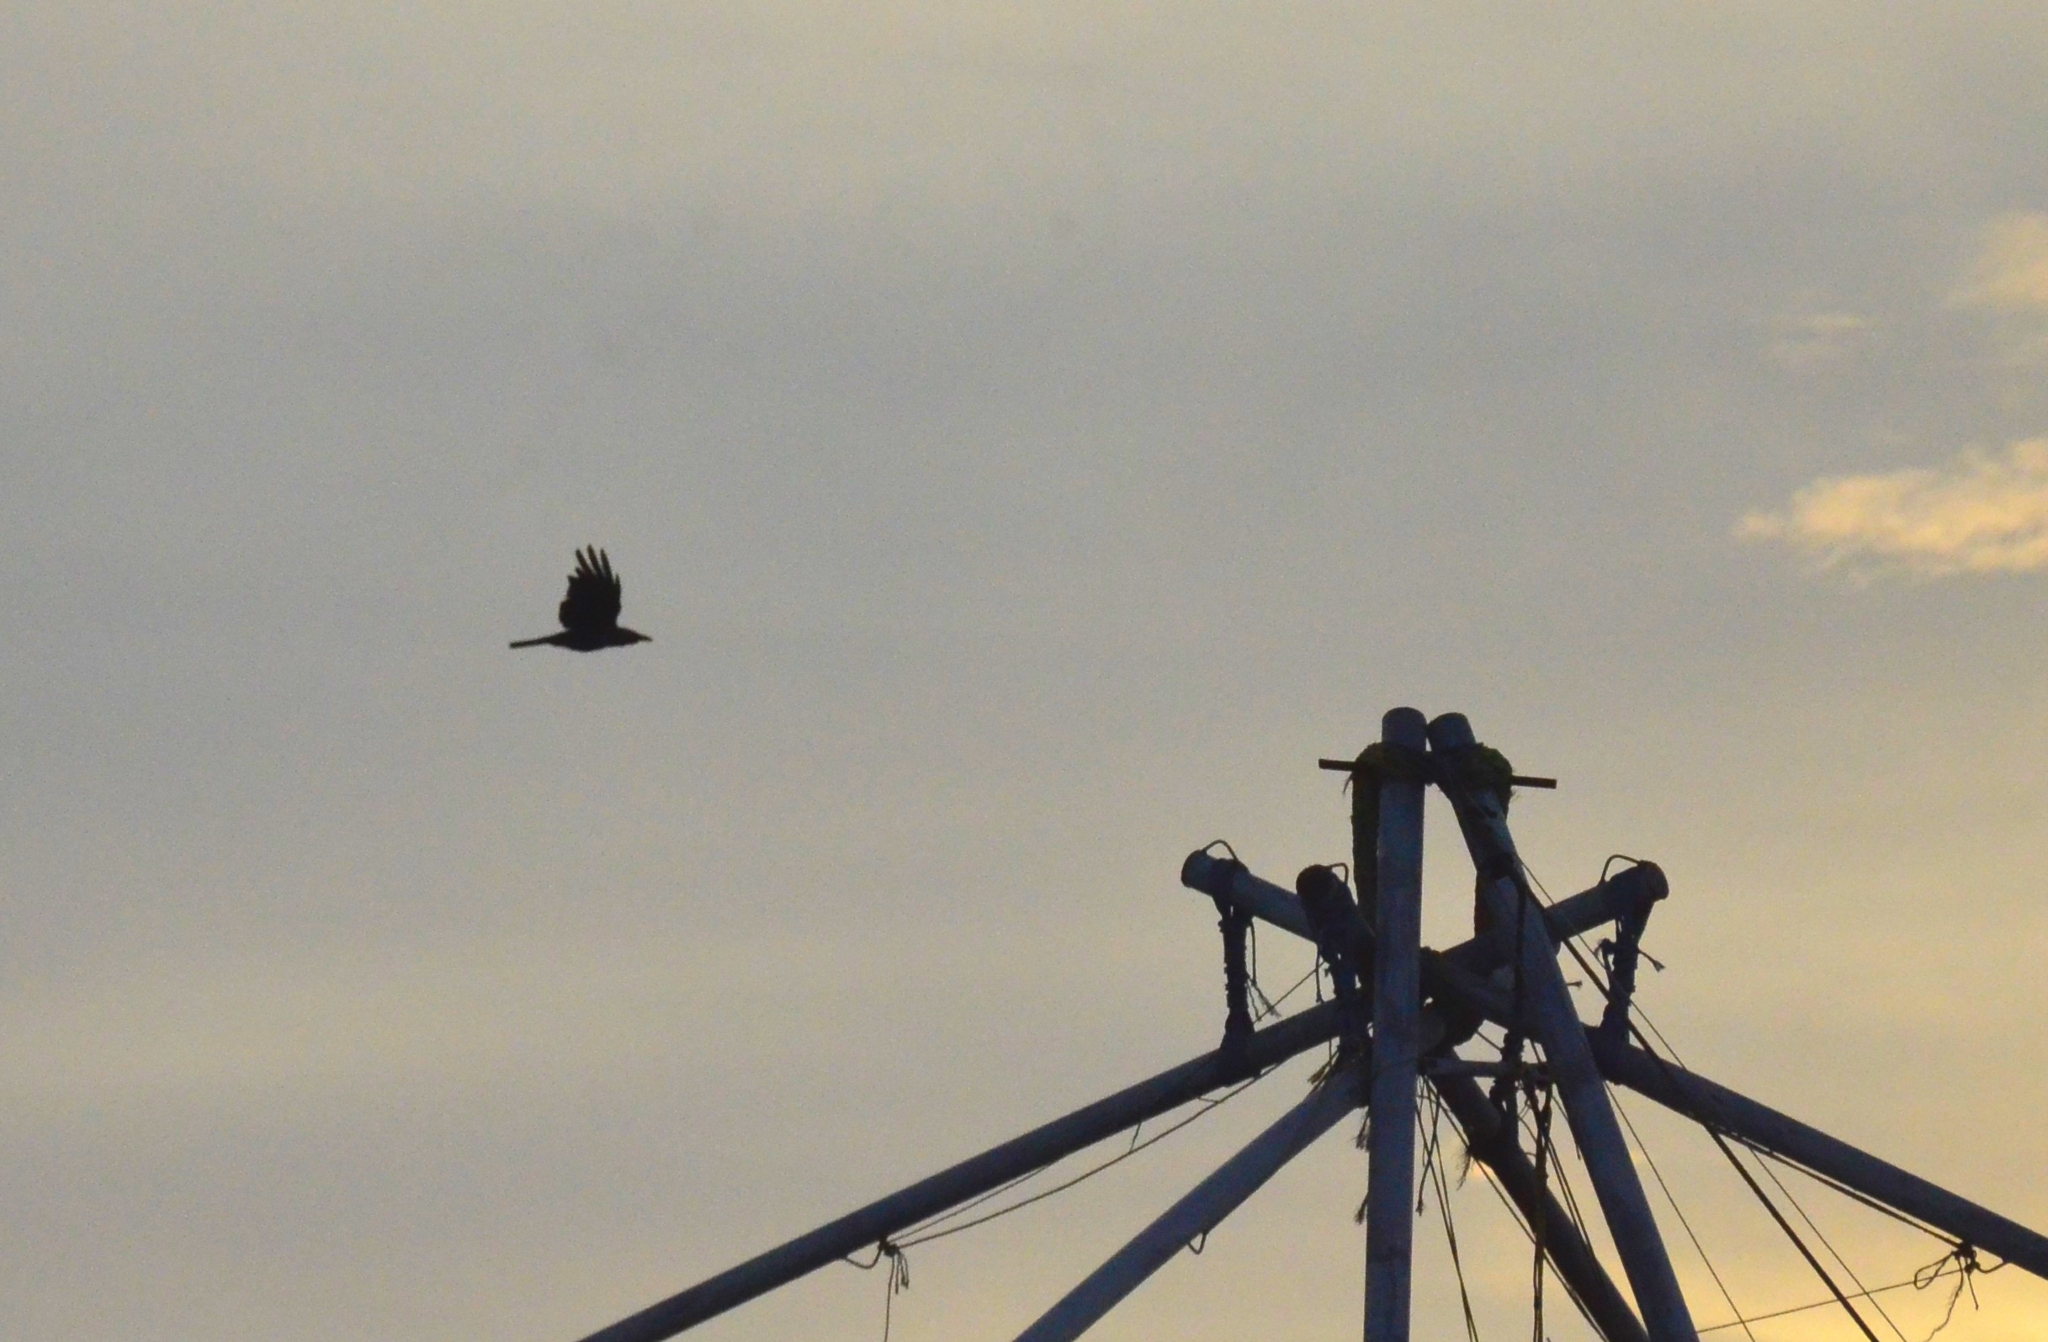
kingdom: Animalia
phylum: Chordata
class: Aves
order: Passeriformes
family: Corvidae
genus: Corvus
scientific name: Corvus splendens
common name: House crow
